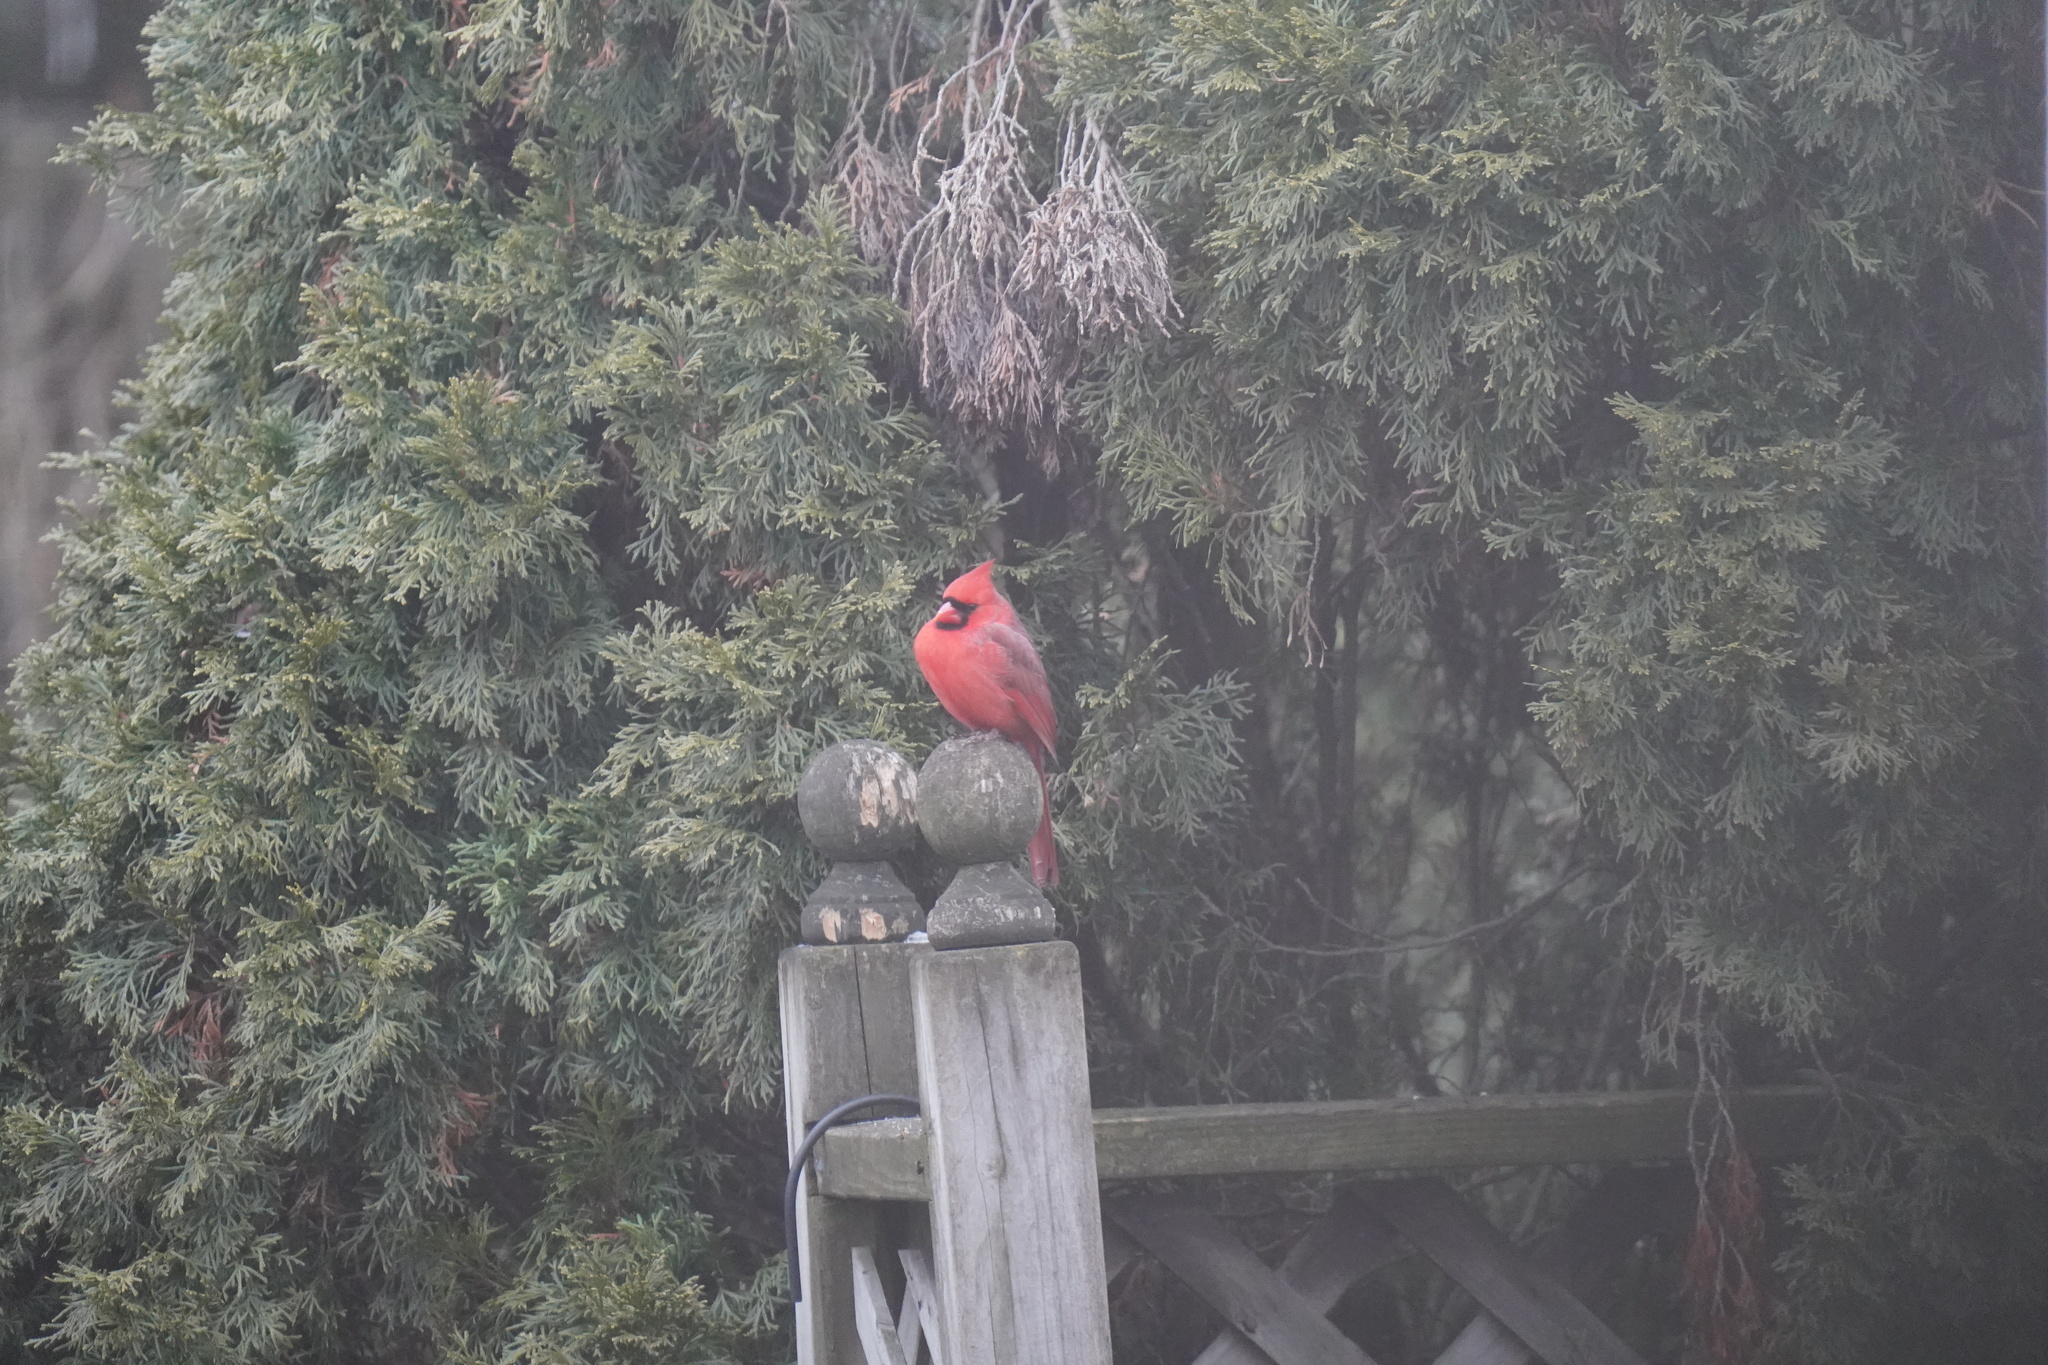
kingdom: Animalia
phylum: Chordata
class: Aves
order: Passeriformes
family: Cardinalidae
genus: Cardinalis
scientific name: Cardinalis cardinalis
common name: Northern cardinal
